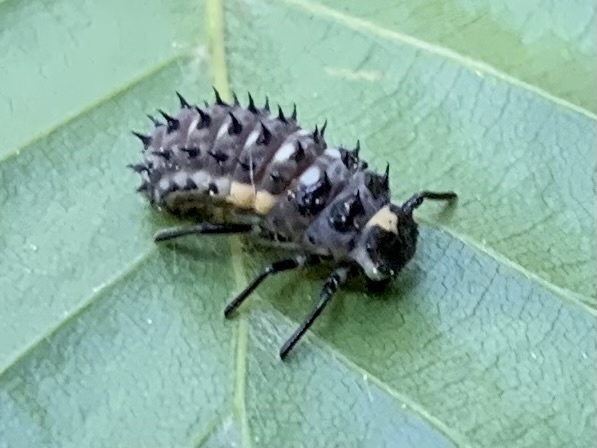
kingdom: Animalia
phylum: Arthropoda
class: Insecta
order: Coleoptera
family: Coccinellidae
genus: Anatis
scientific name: Anatis ocellata
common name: Eyed ladybird
